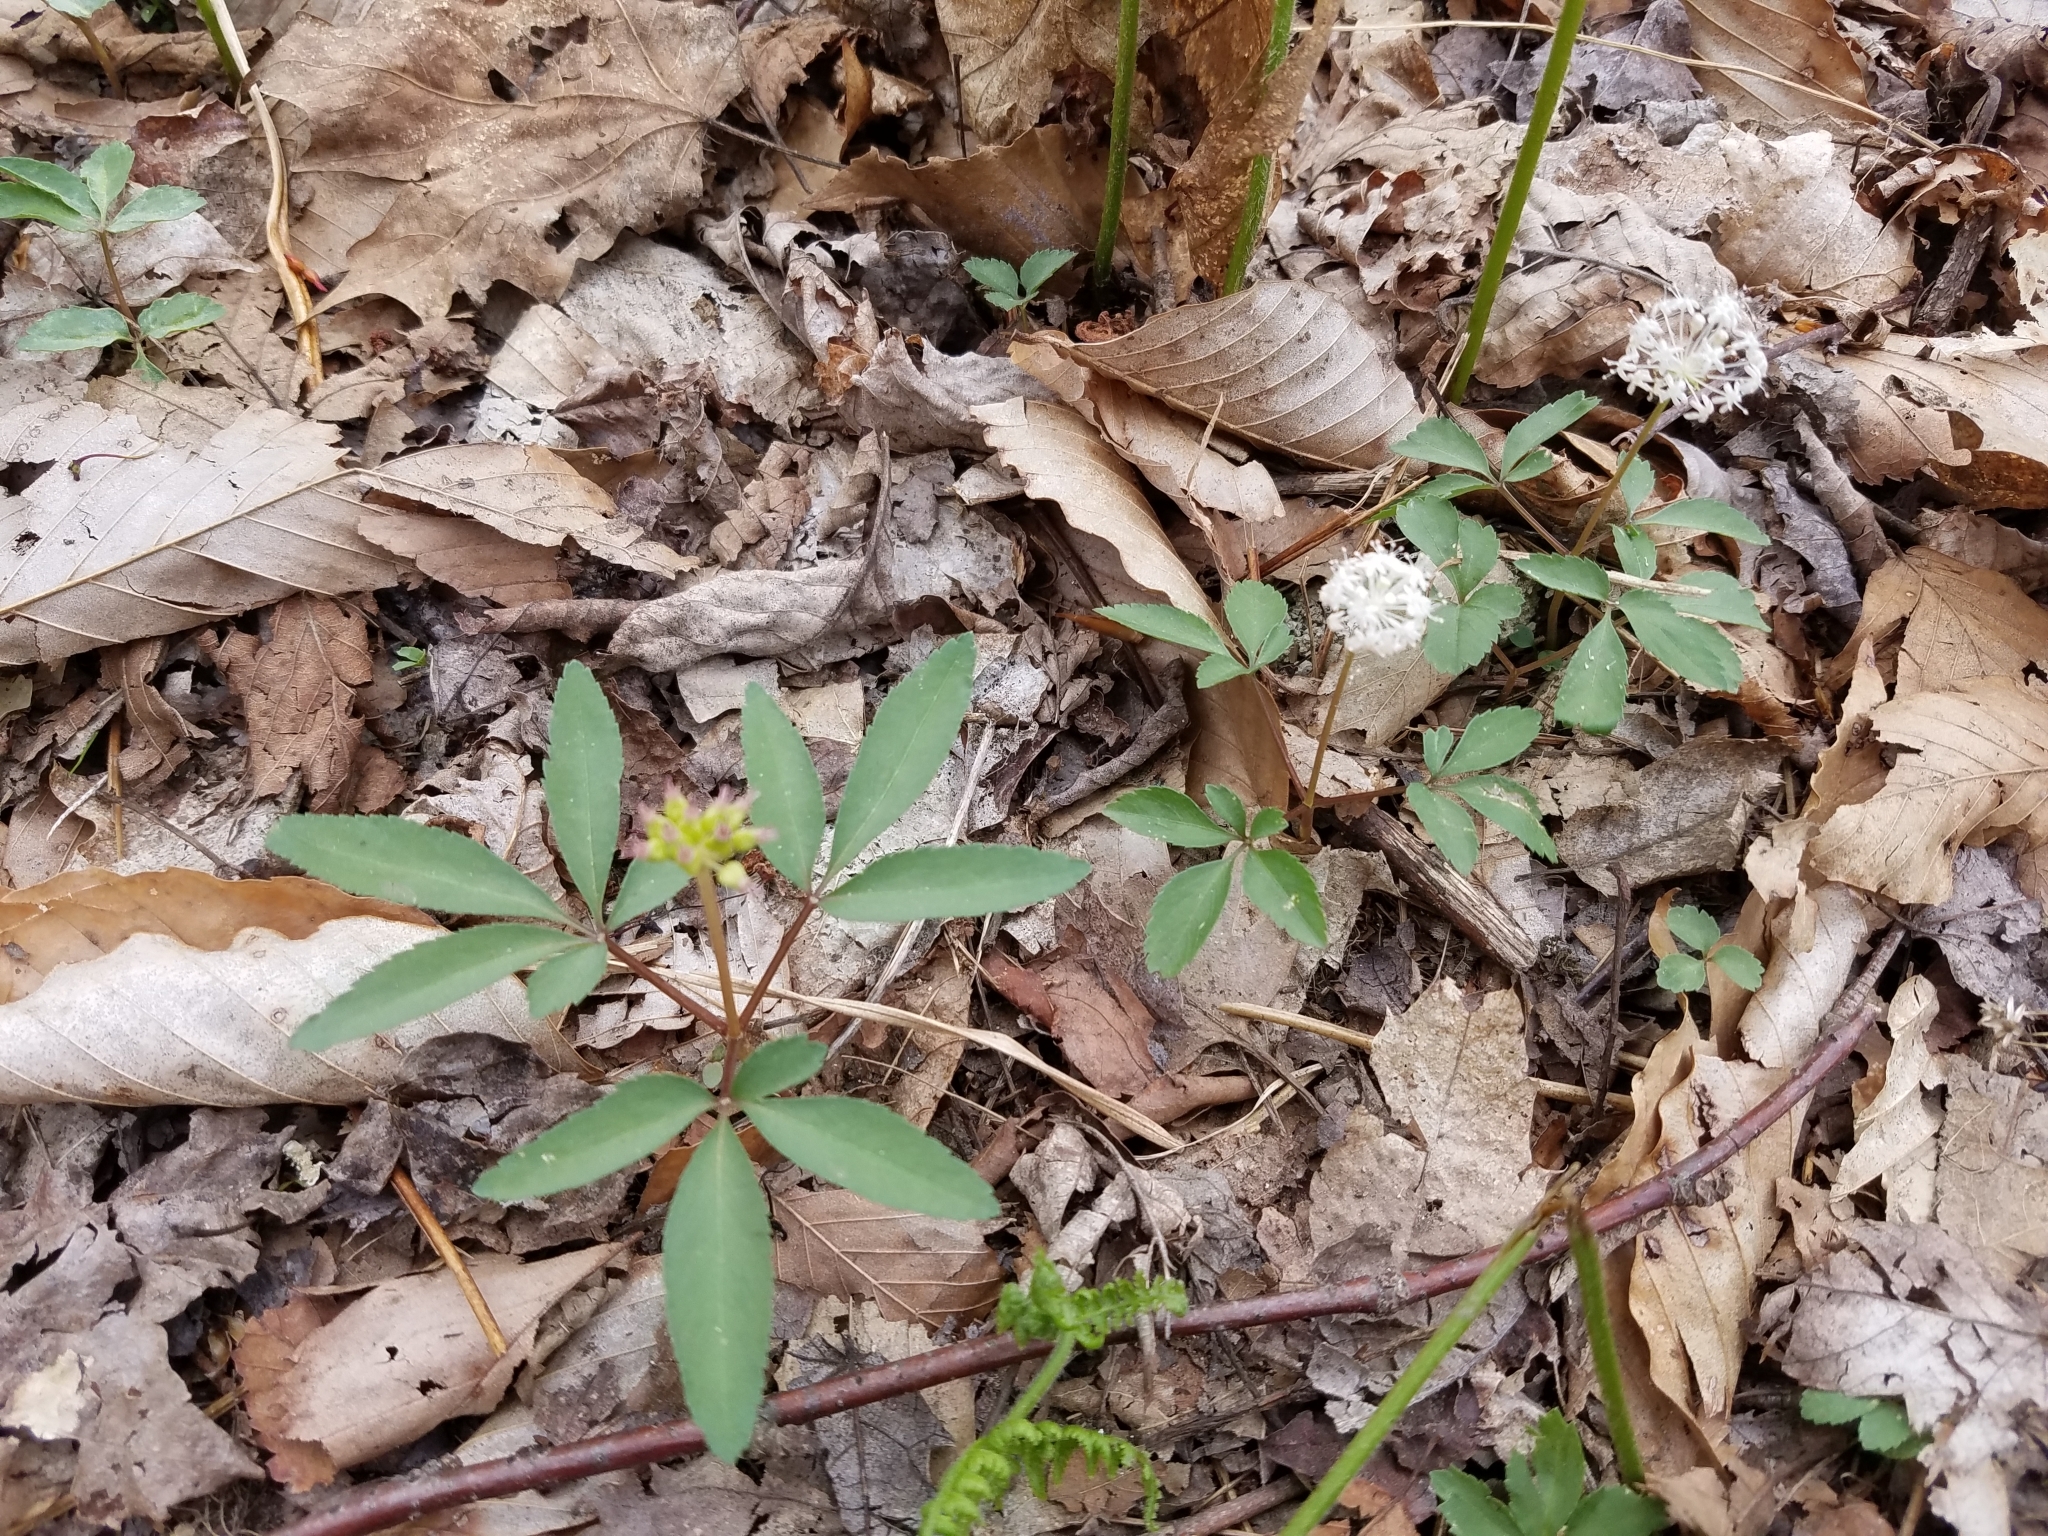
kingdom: Plantae
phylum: Tracheophyta
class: Magnoliopsida
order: Apiales
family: Araliaceae
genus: Panax
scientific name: Panax trifolius
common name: Dwarf ginseng
